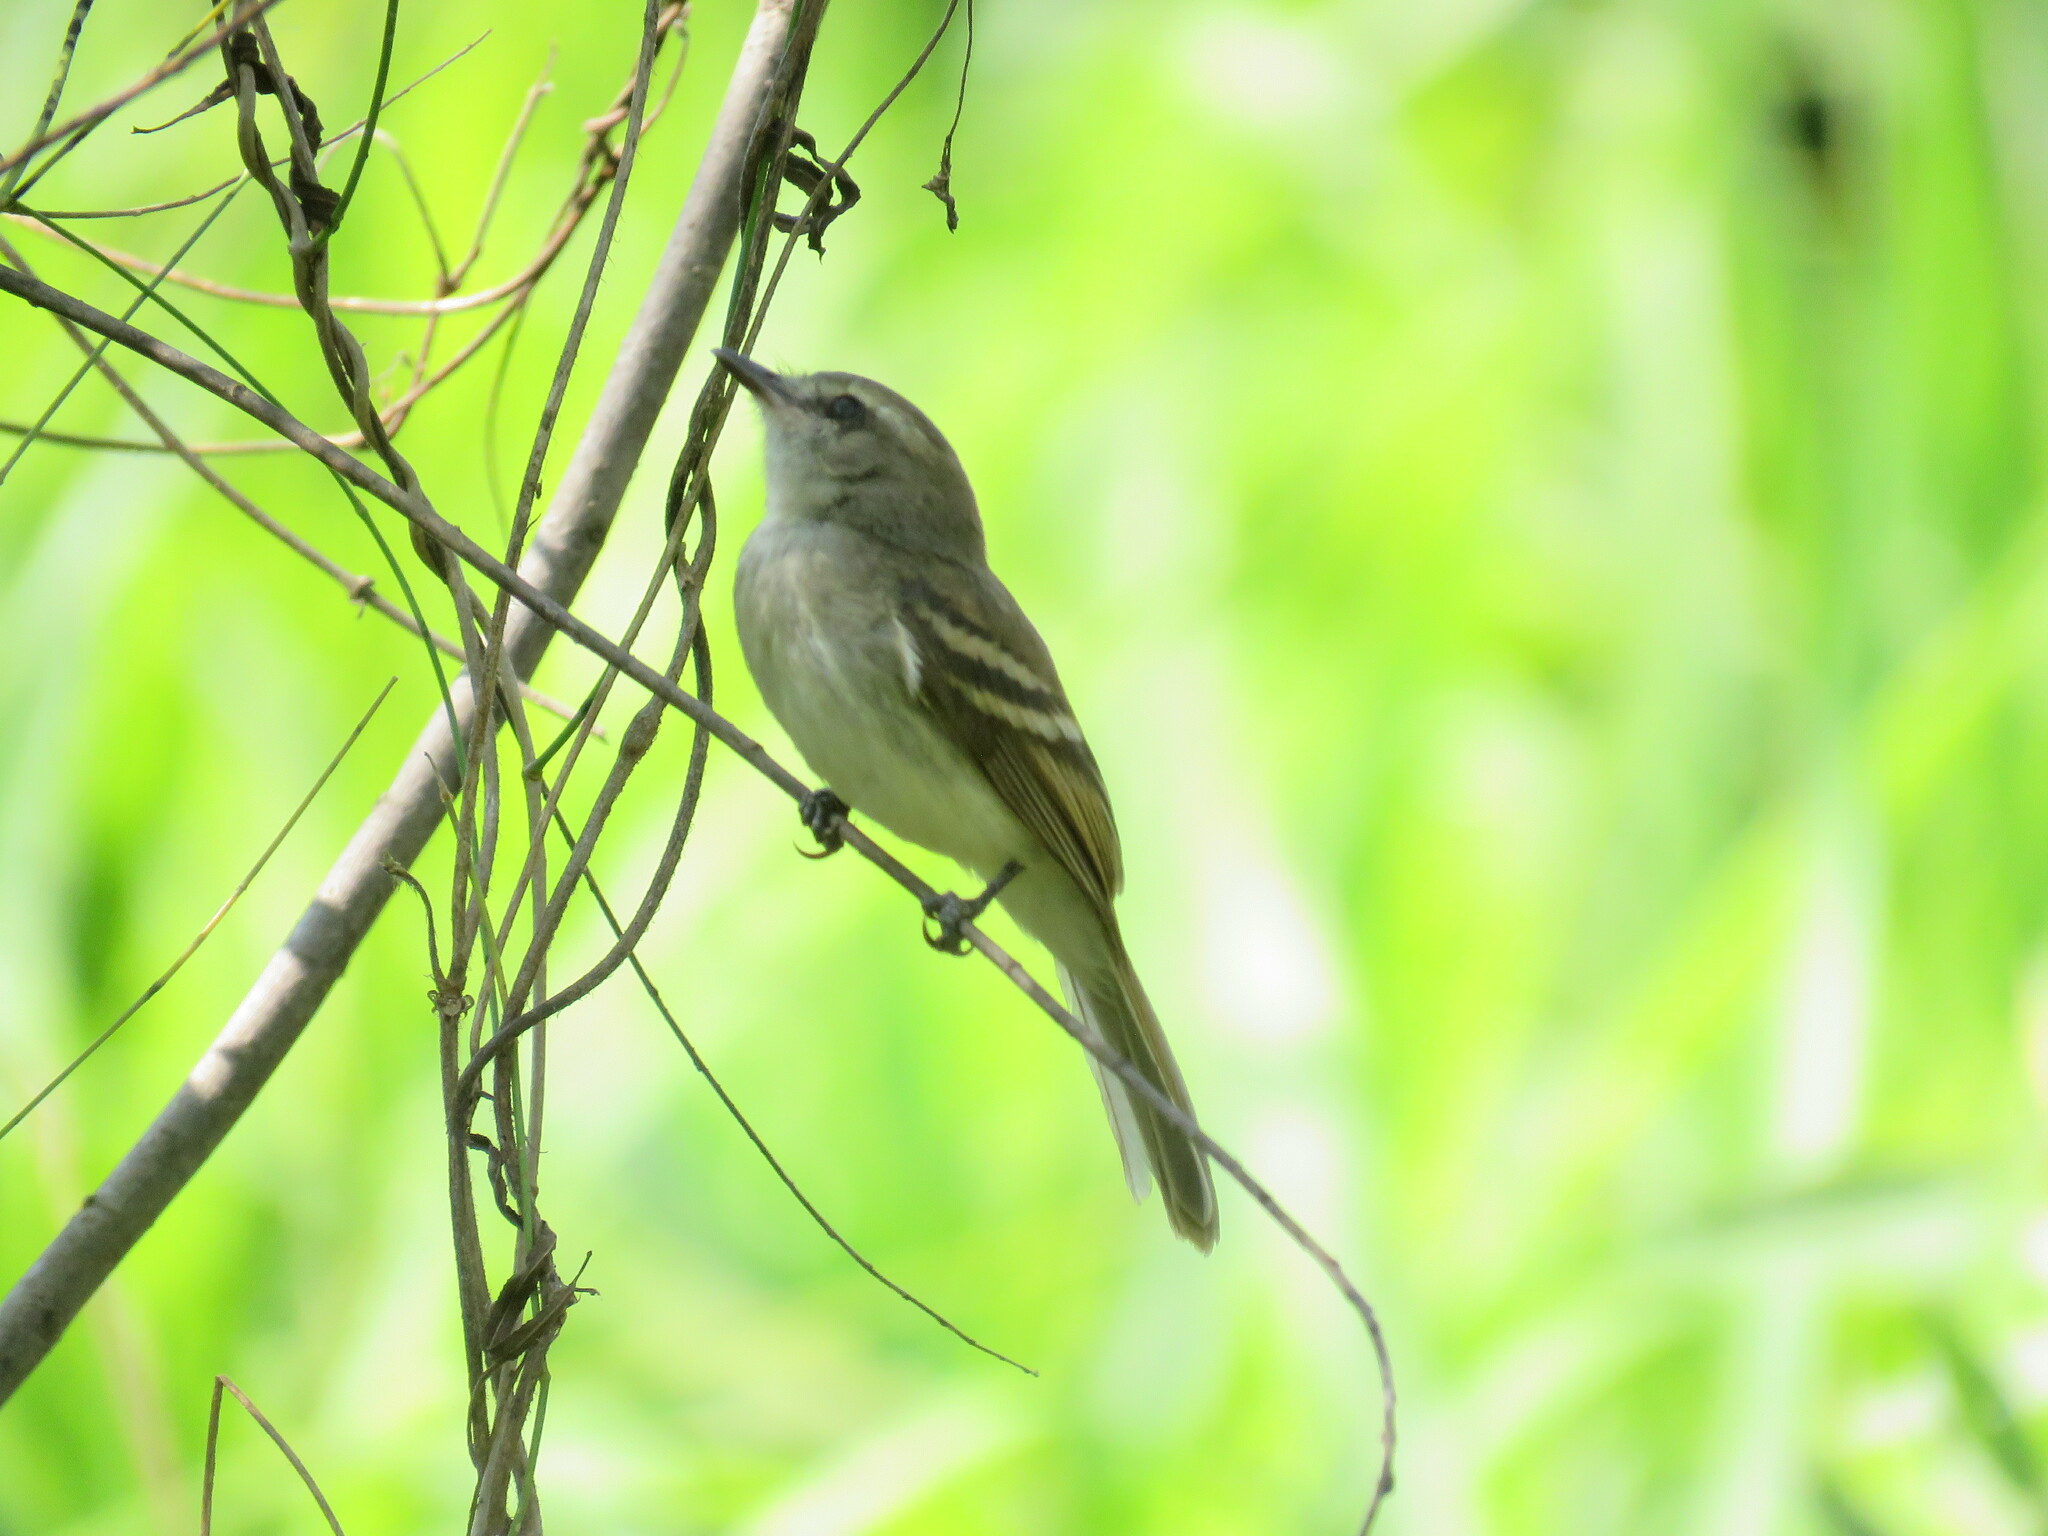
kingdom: Animalia
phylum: Chordata
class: Aves
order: Passeriformes
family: Tyrannidae
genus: Phaeomyias
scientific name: Phaeomyias murina
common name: Mouse-colored tyrannulet
